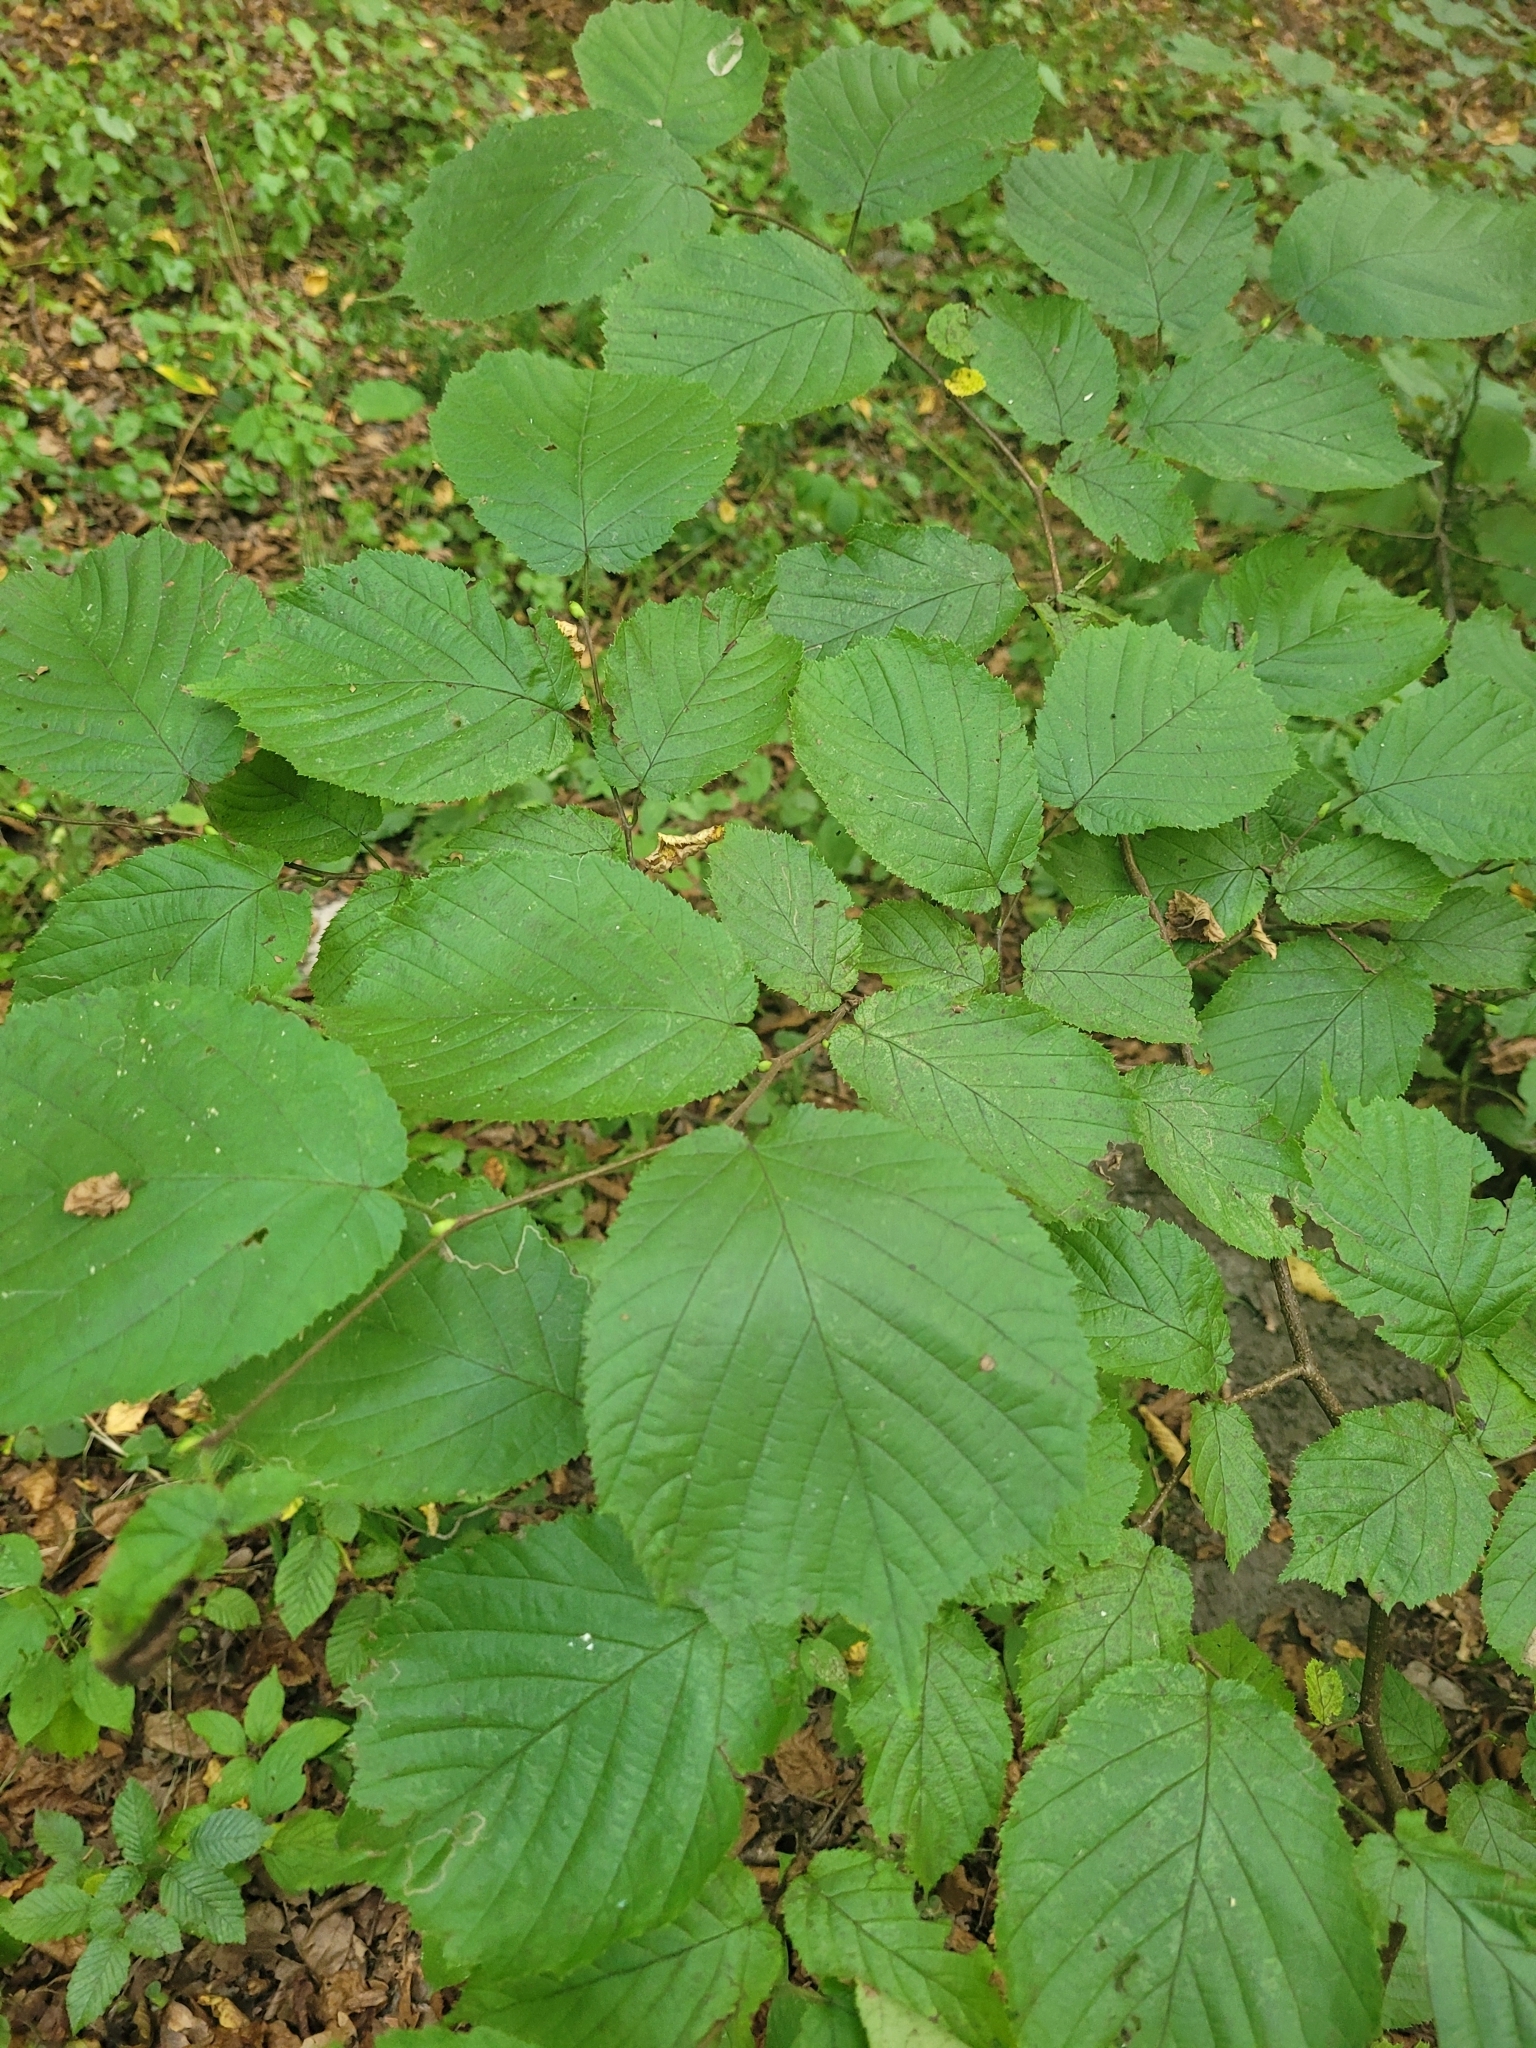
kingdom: Plantae
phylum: Tracheophyta
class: Magnoliopsida
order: Fagales
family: Betulaceae
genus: Corylus
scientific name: Corylus avellana
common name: European hazel
